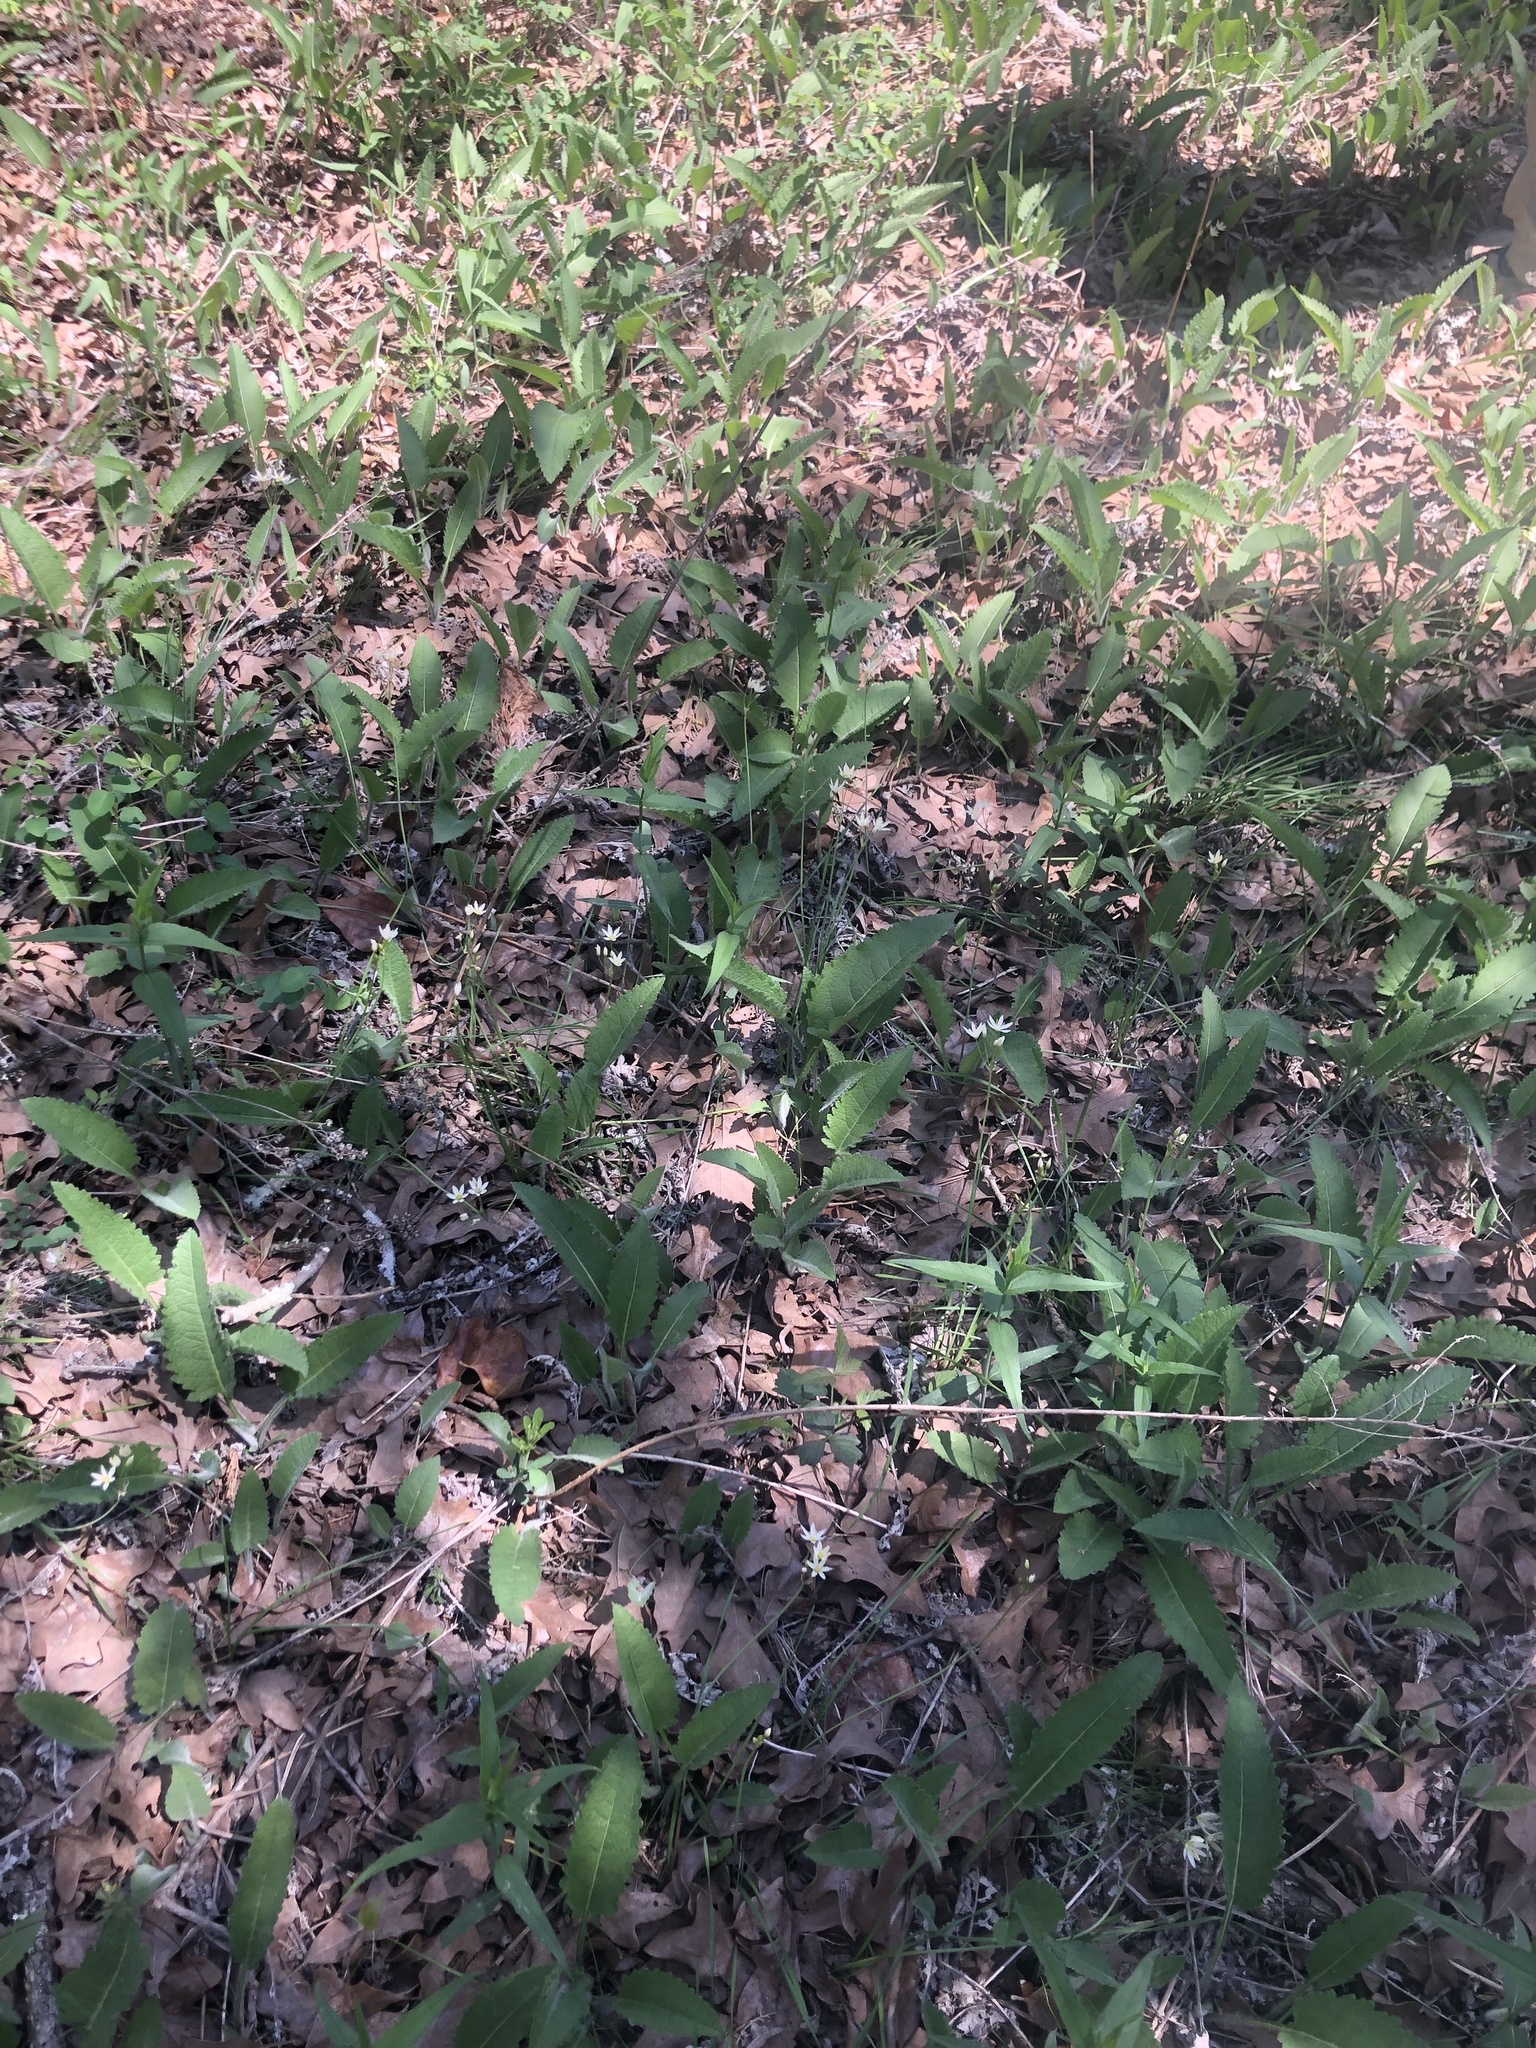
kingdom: Plantae
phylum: Tracheophyta
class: Magnoliopsida
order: Asterales
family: Asteraceae
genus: Parthenium
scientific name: Parthenium auriculatum
